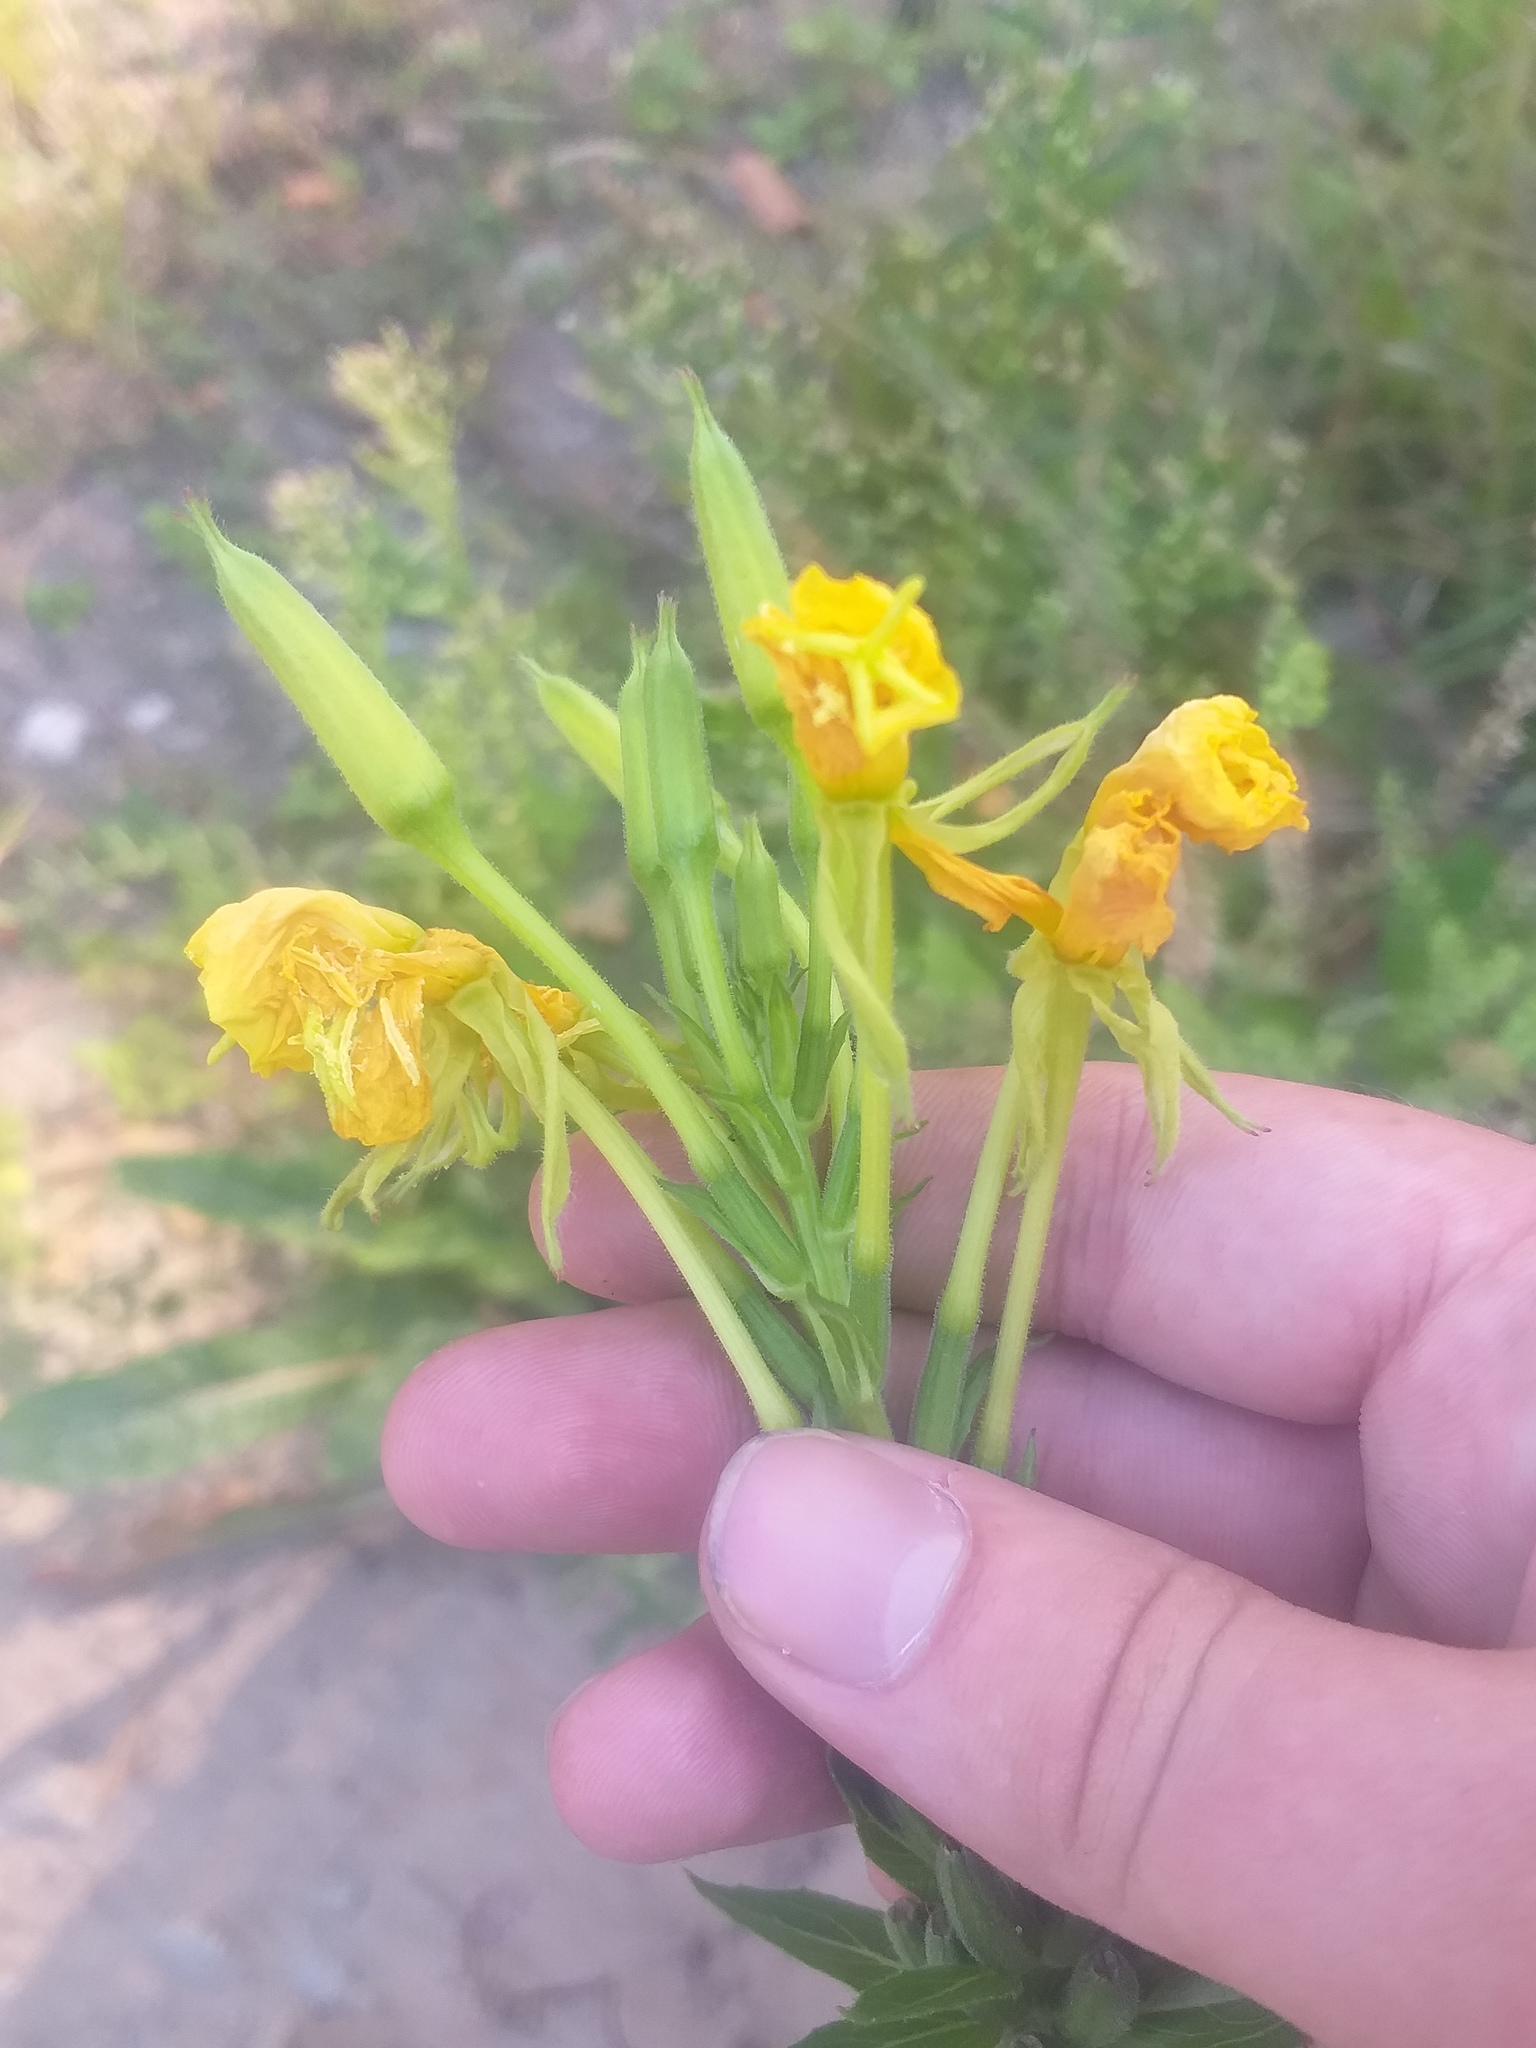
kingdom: Plantae
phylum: Tracheophyta
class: Magnoliopsida
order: Myrtales
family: Onagraceae
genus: Oenothera
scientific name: Oenothera biennis
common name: Common evening-primrose
